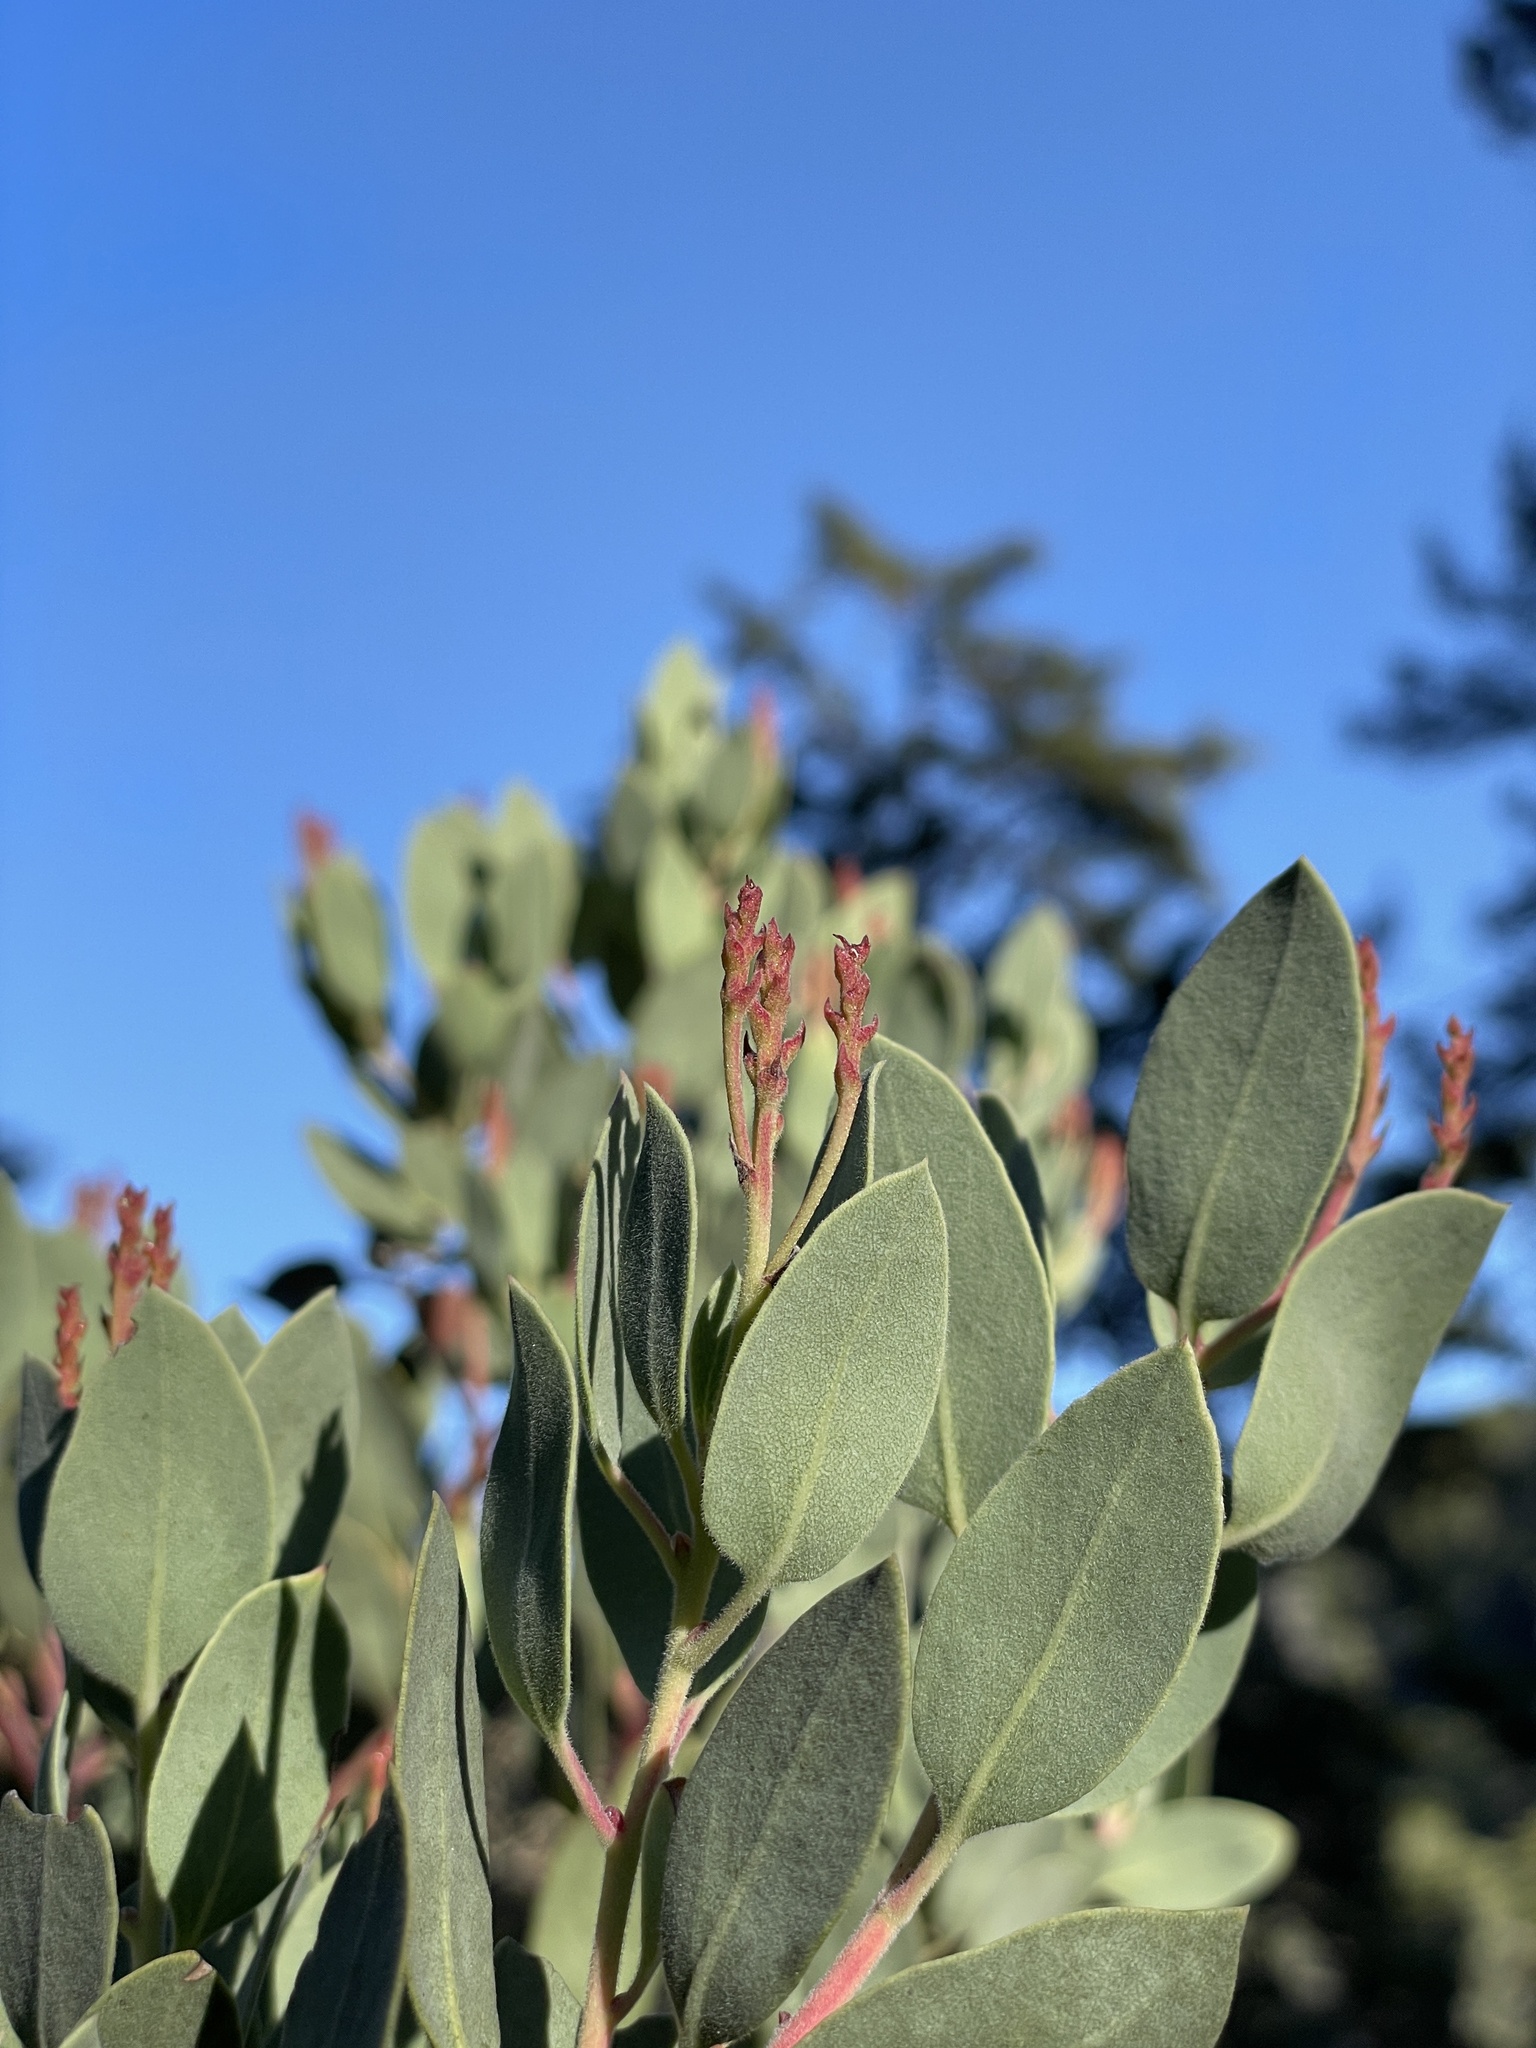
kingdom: Plantae
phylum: Tracheophyta
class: Magnoliopsida
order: Ericales
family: Ericaceae
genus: Arctostaphylos
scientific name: Arctostaphylos viscida
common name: White-leaf manzanita
